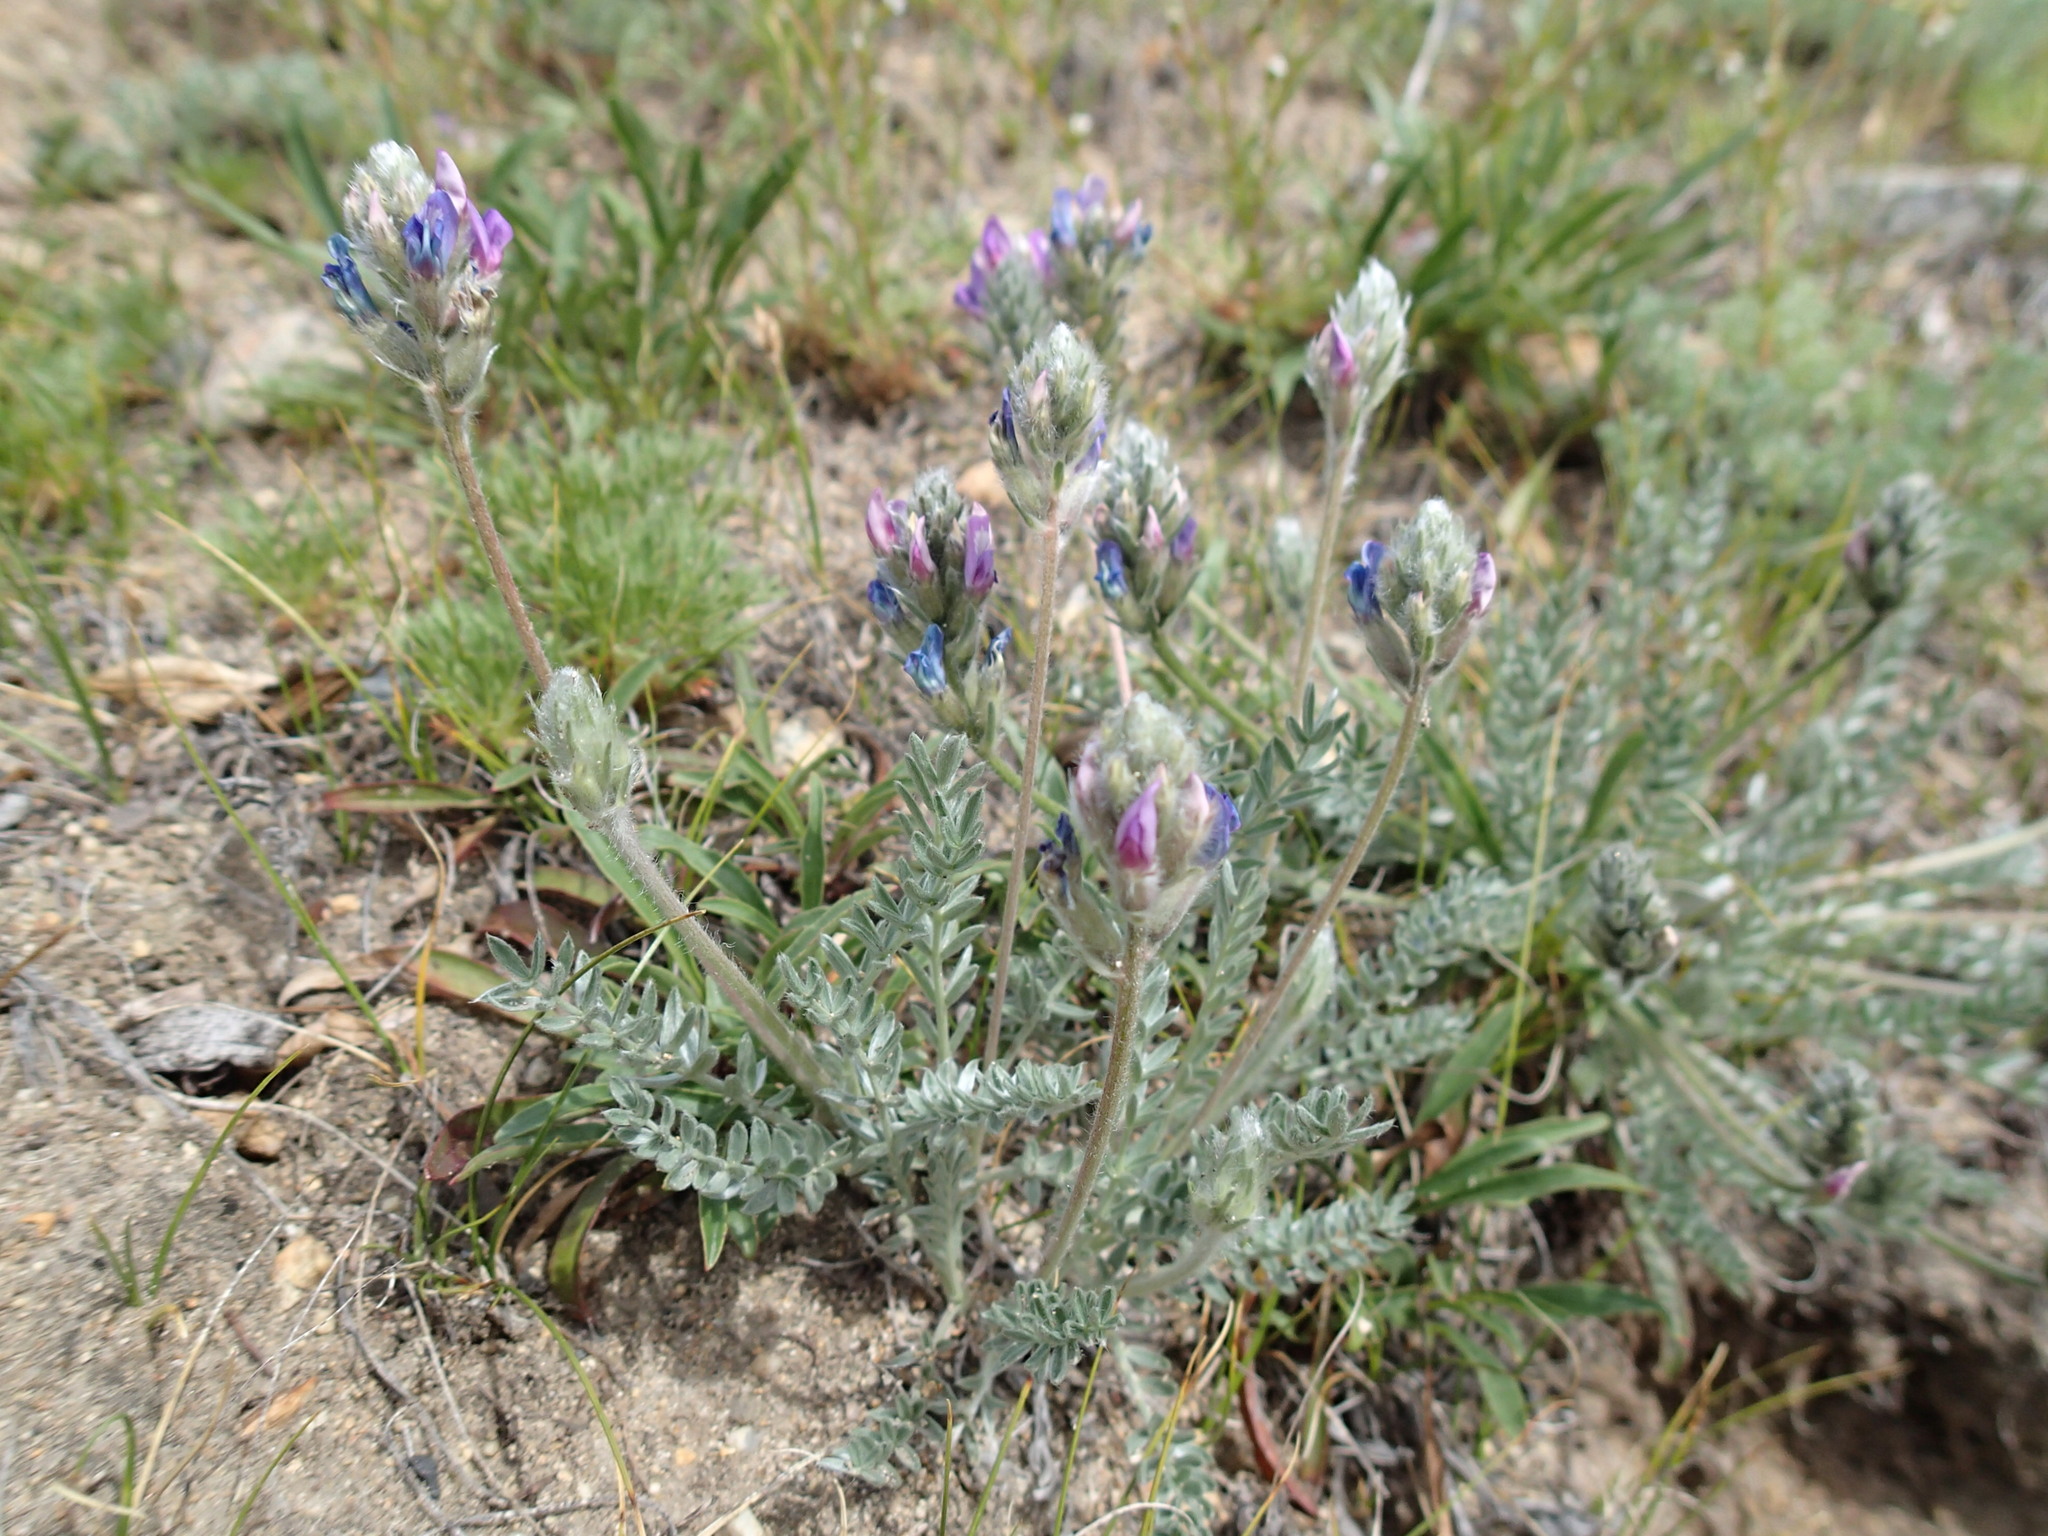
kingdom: Plantae
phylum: Tracheophyta
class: Magnoliopsida
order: Fabales
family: Fabaceae
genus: Oxytropis
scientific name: Oxytropis splendens
